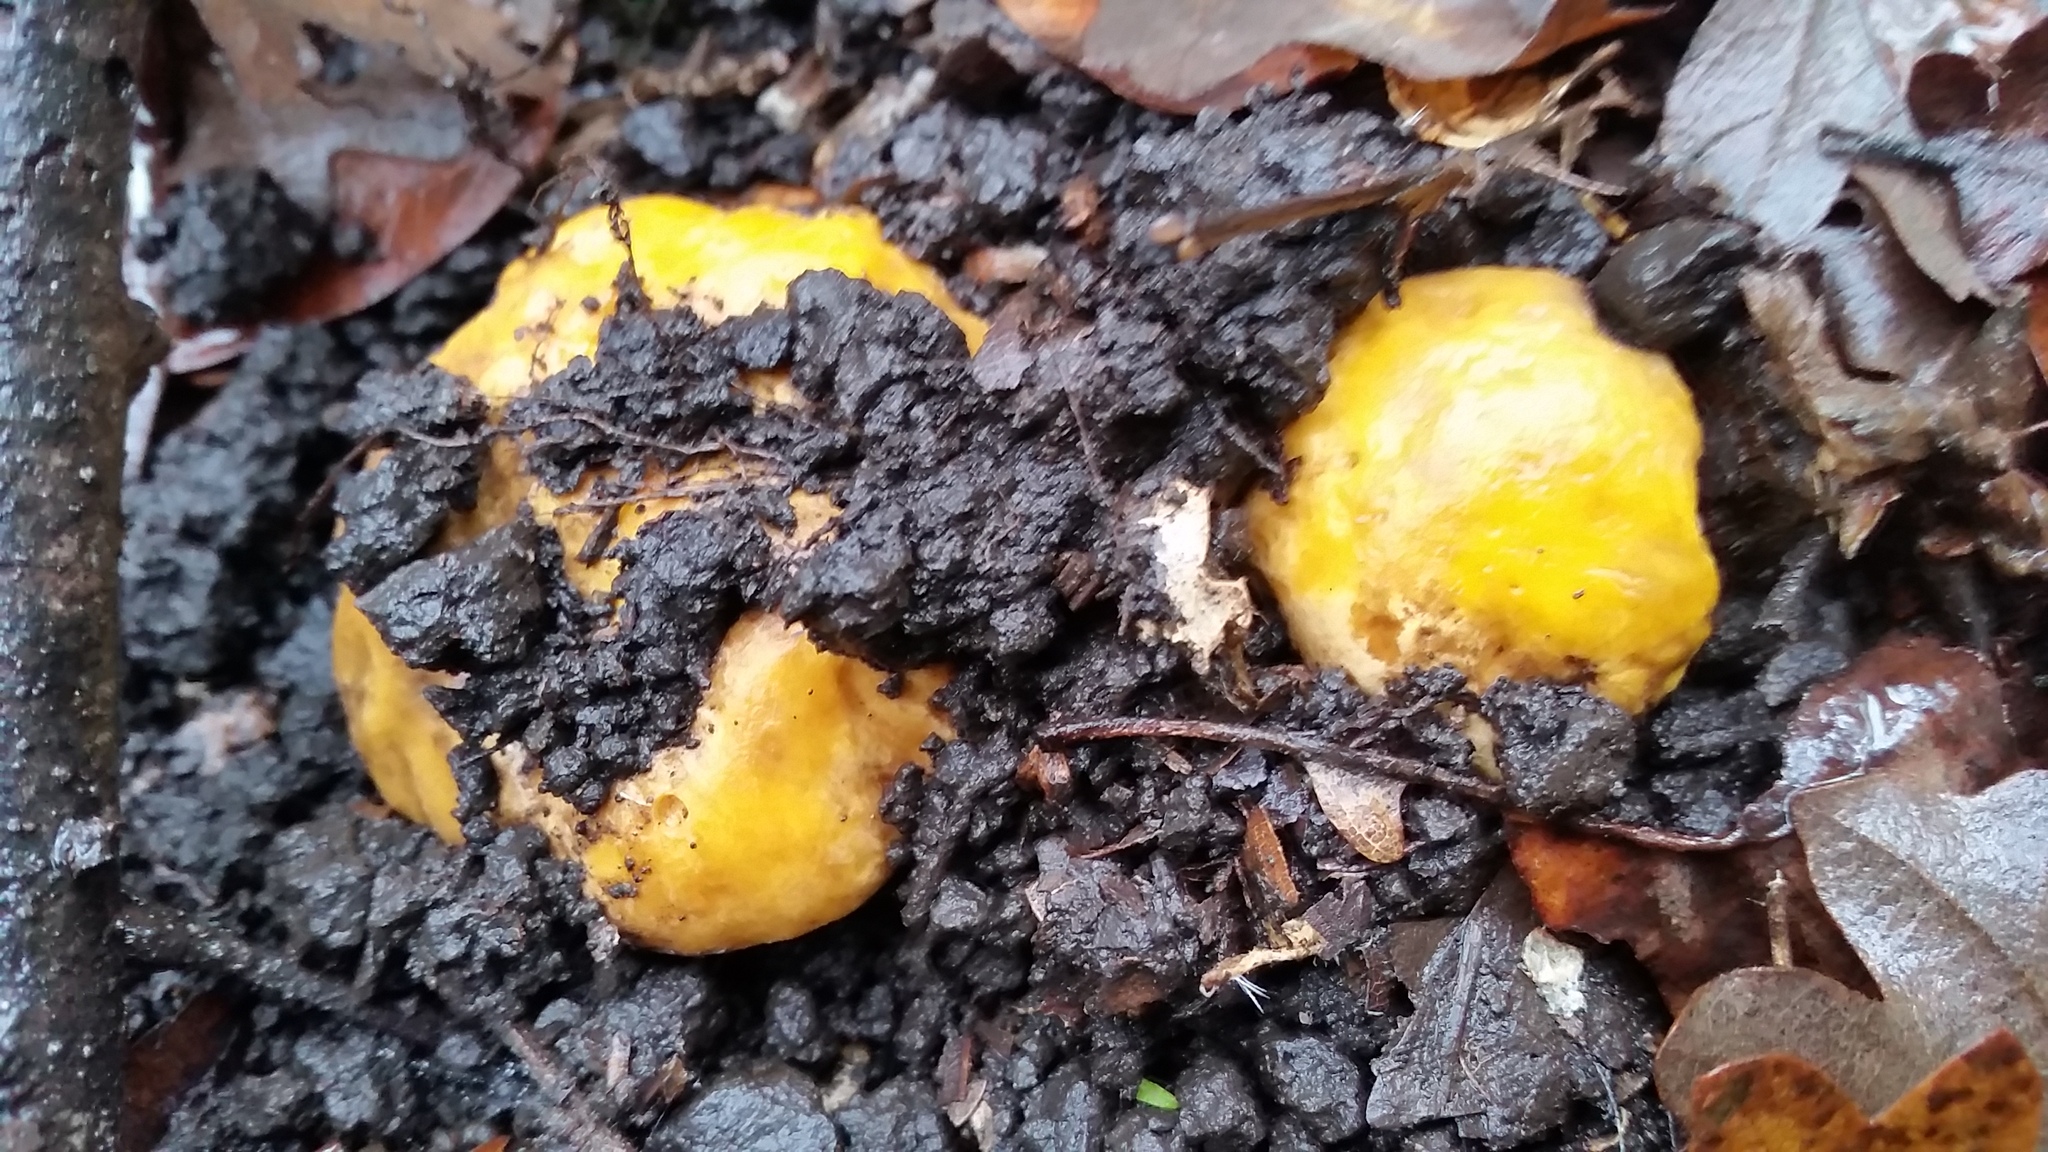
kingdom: Fungi
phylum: Basidiomycota
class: Agaricomycetes
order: Cantharellales
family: Hydnaceae
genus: Cantharellus
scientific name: Cantharellus californicus
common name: California golden chanterelle
